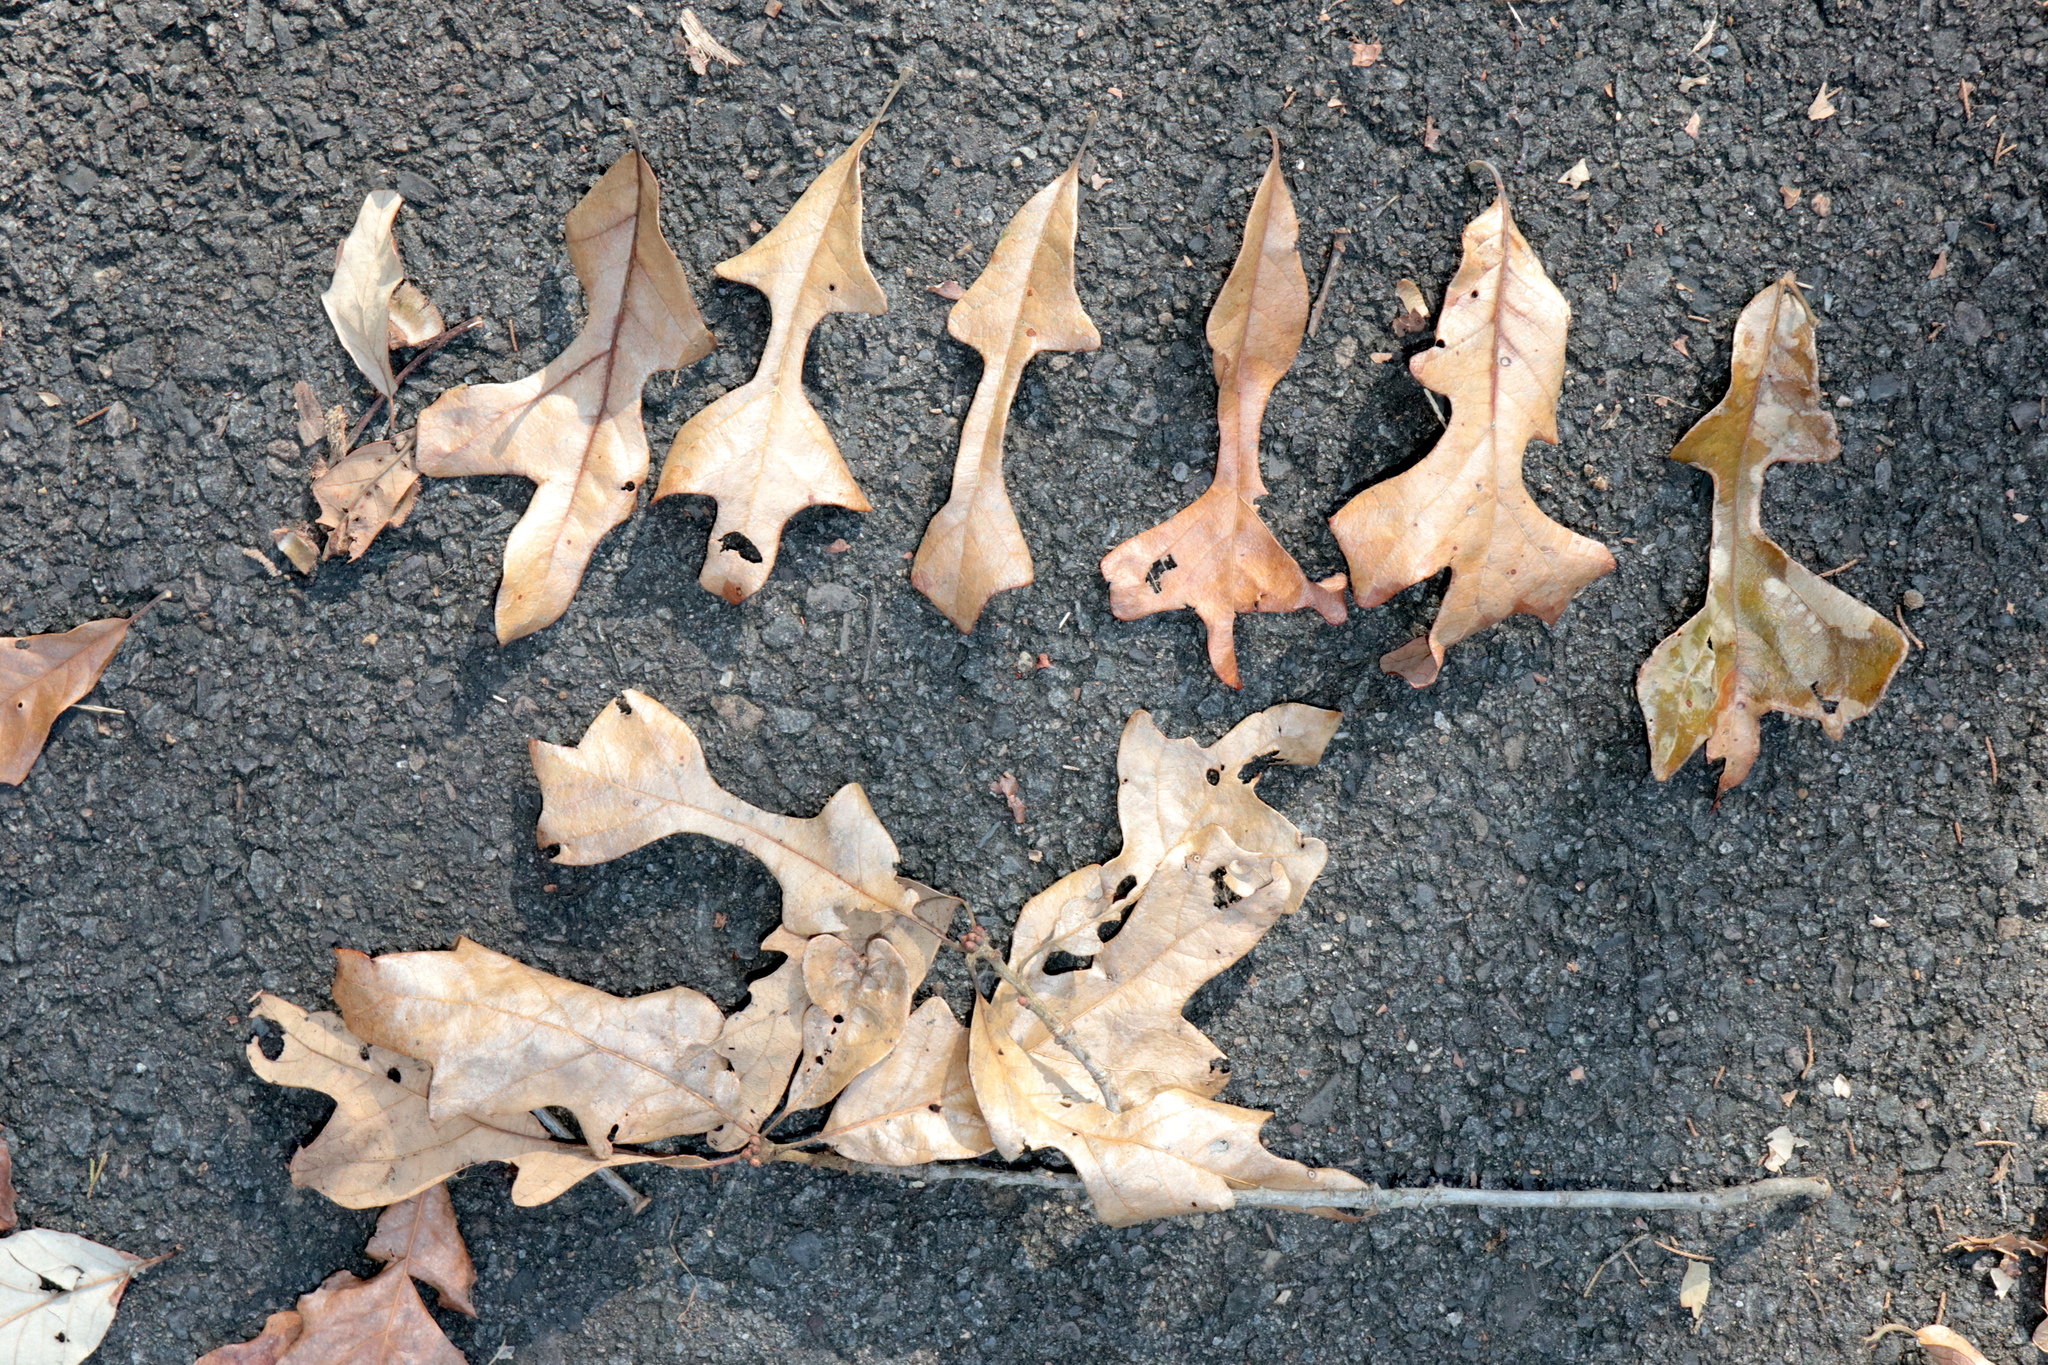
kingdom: Plantae
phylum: Tracheophyta
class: Magnoliopsida
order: Fagales
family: Fagaceae
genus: Quercus
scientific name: Quercus stellata
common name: Post oak
